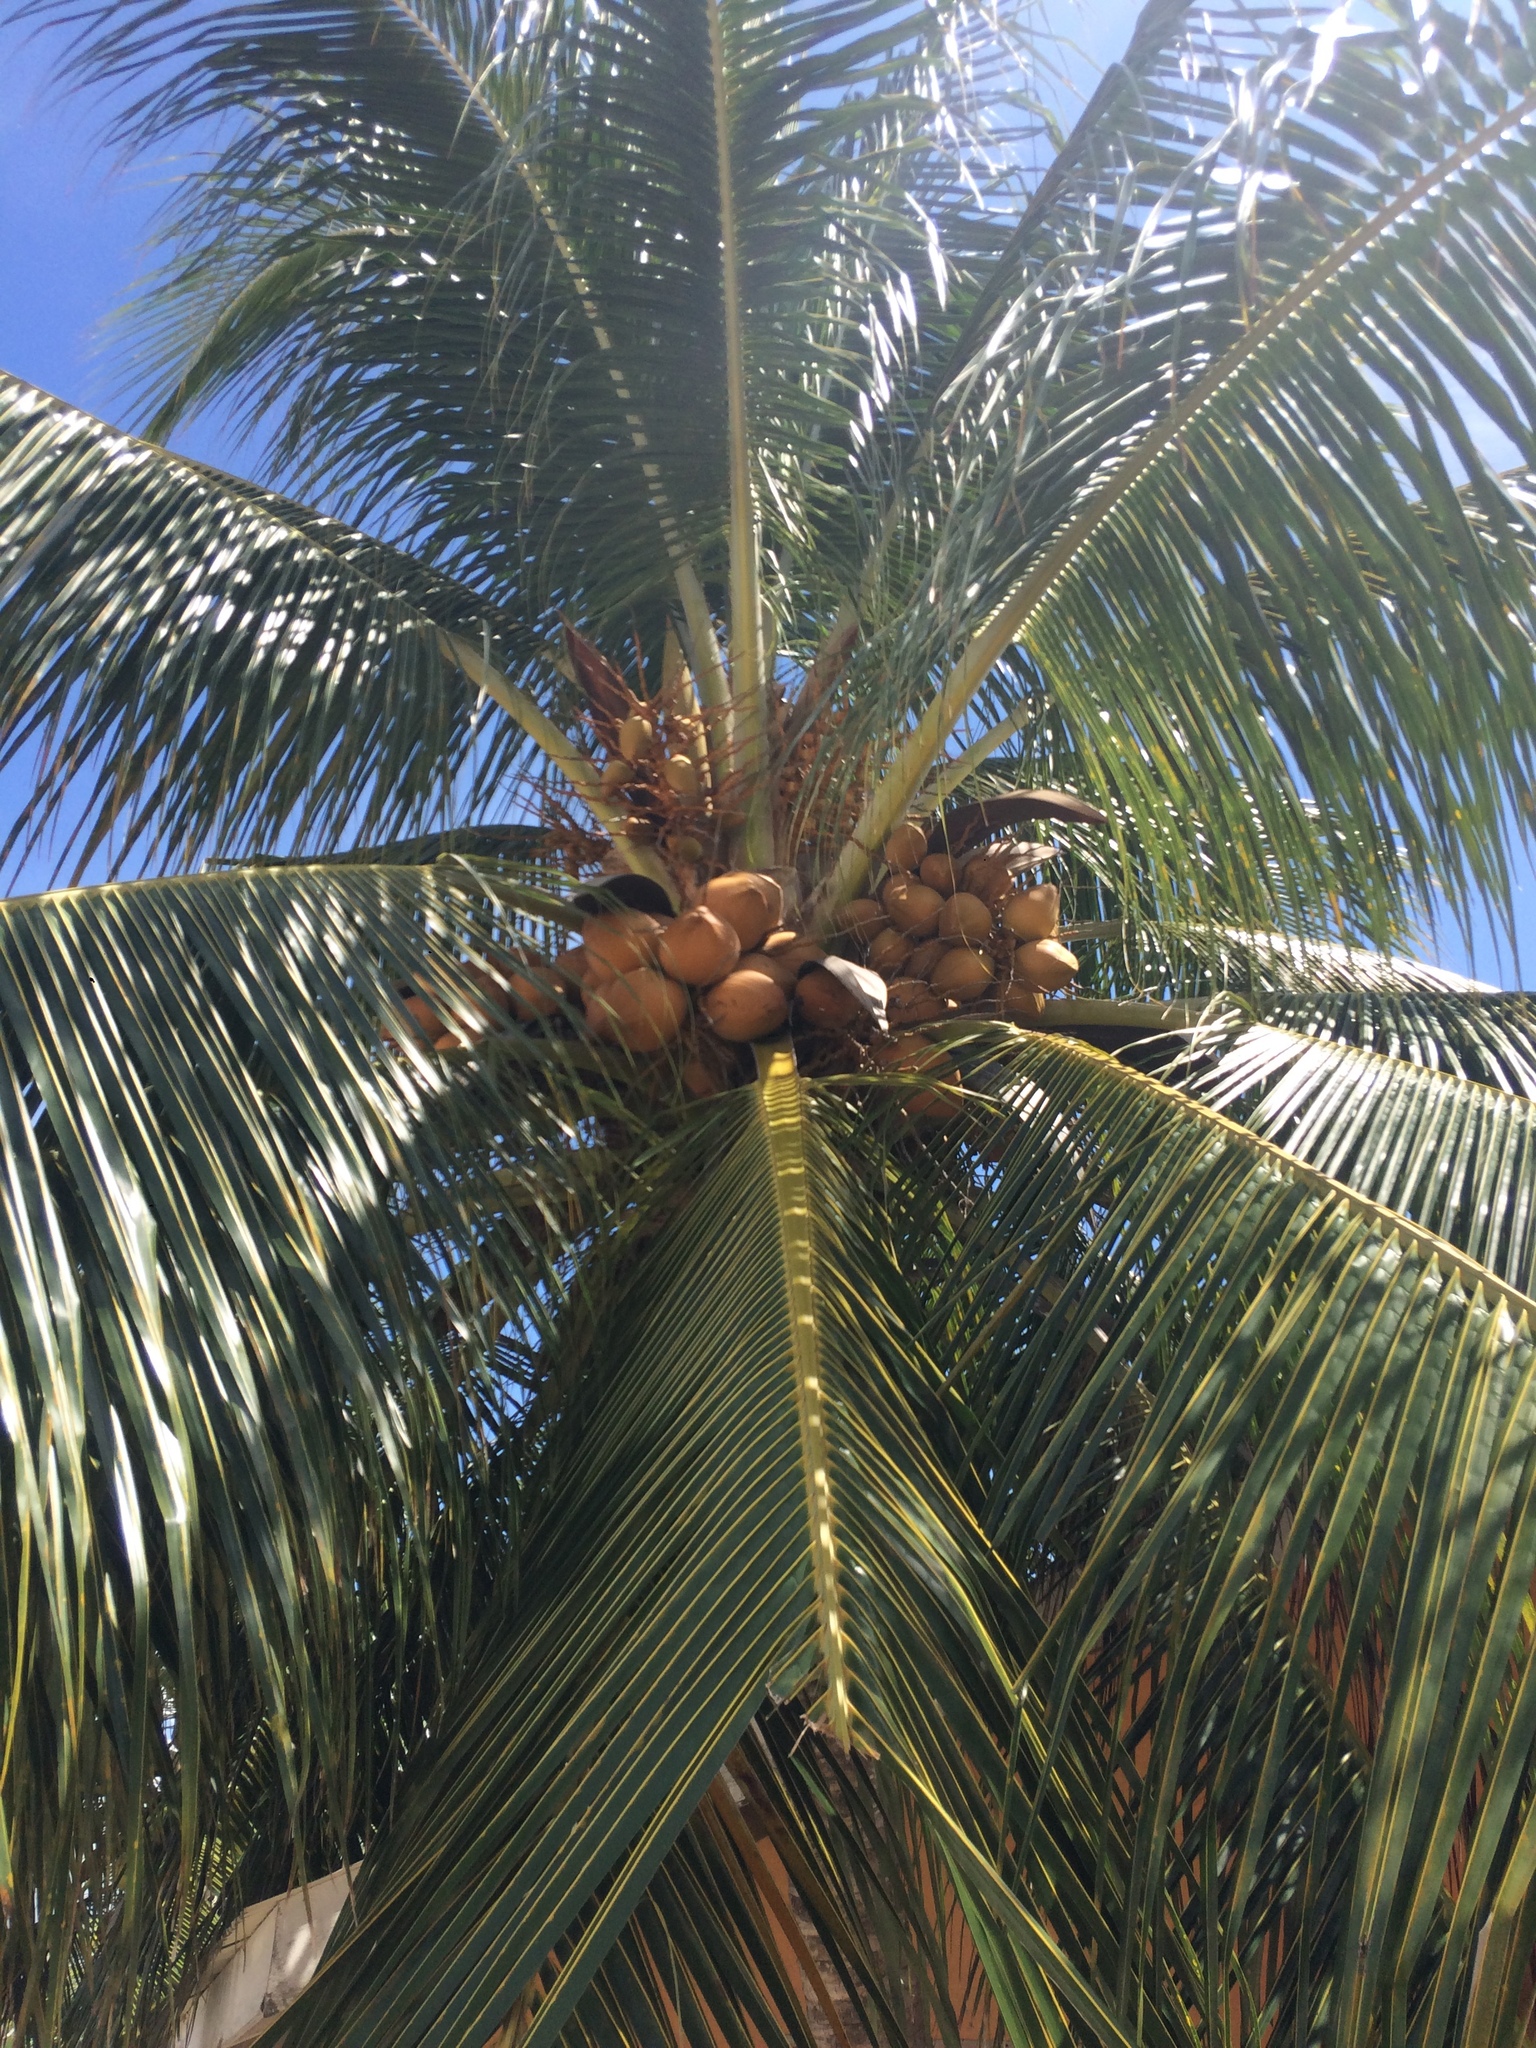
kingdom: Plantae
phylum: Tracheophyta
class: Liliopsida
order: Arecales
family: Arecaceae
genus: Cocos
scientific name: Cocos nucifera
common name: Coconut palm
